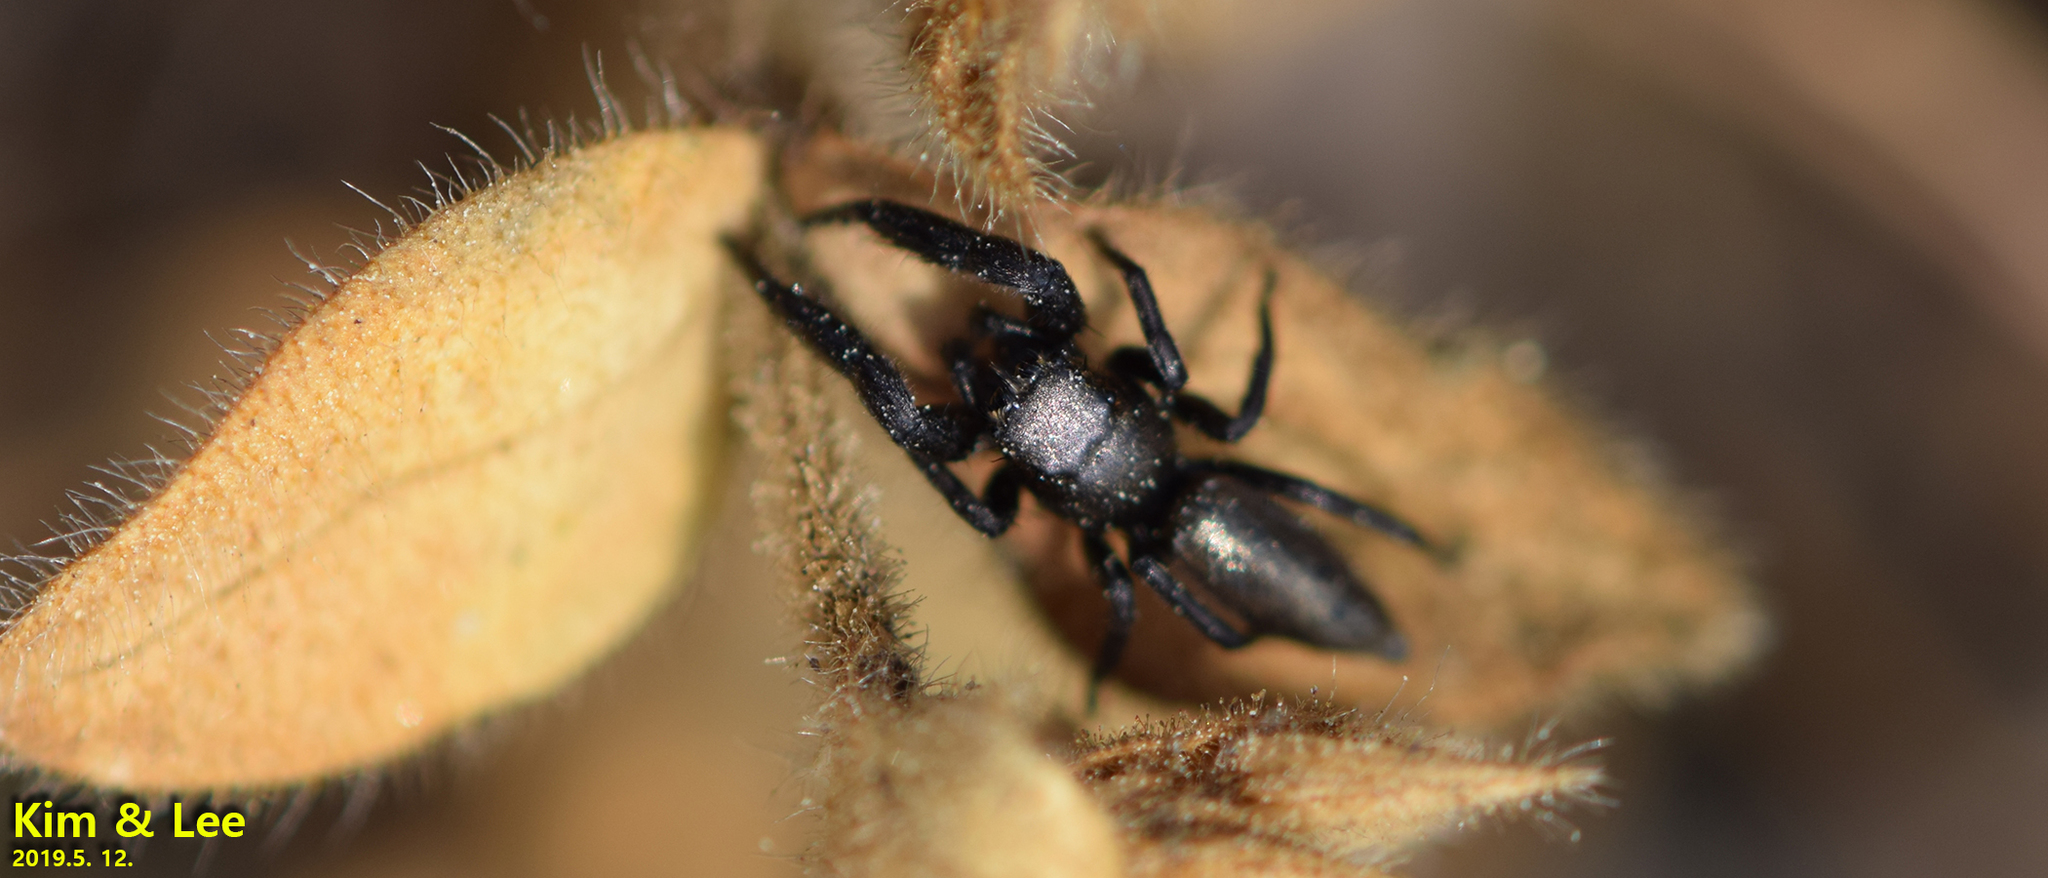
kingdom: Animalia
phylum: Arthropoda
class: Arachnida
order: Araneae
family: Salticidae
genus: Mendoza
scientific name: Mendoza canestrinii
